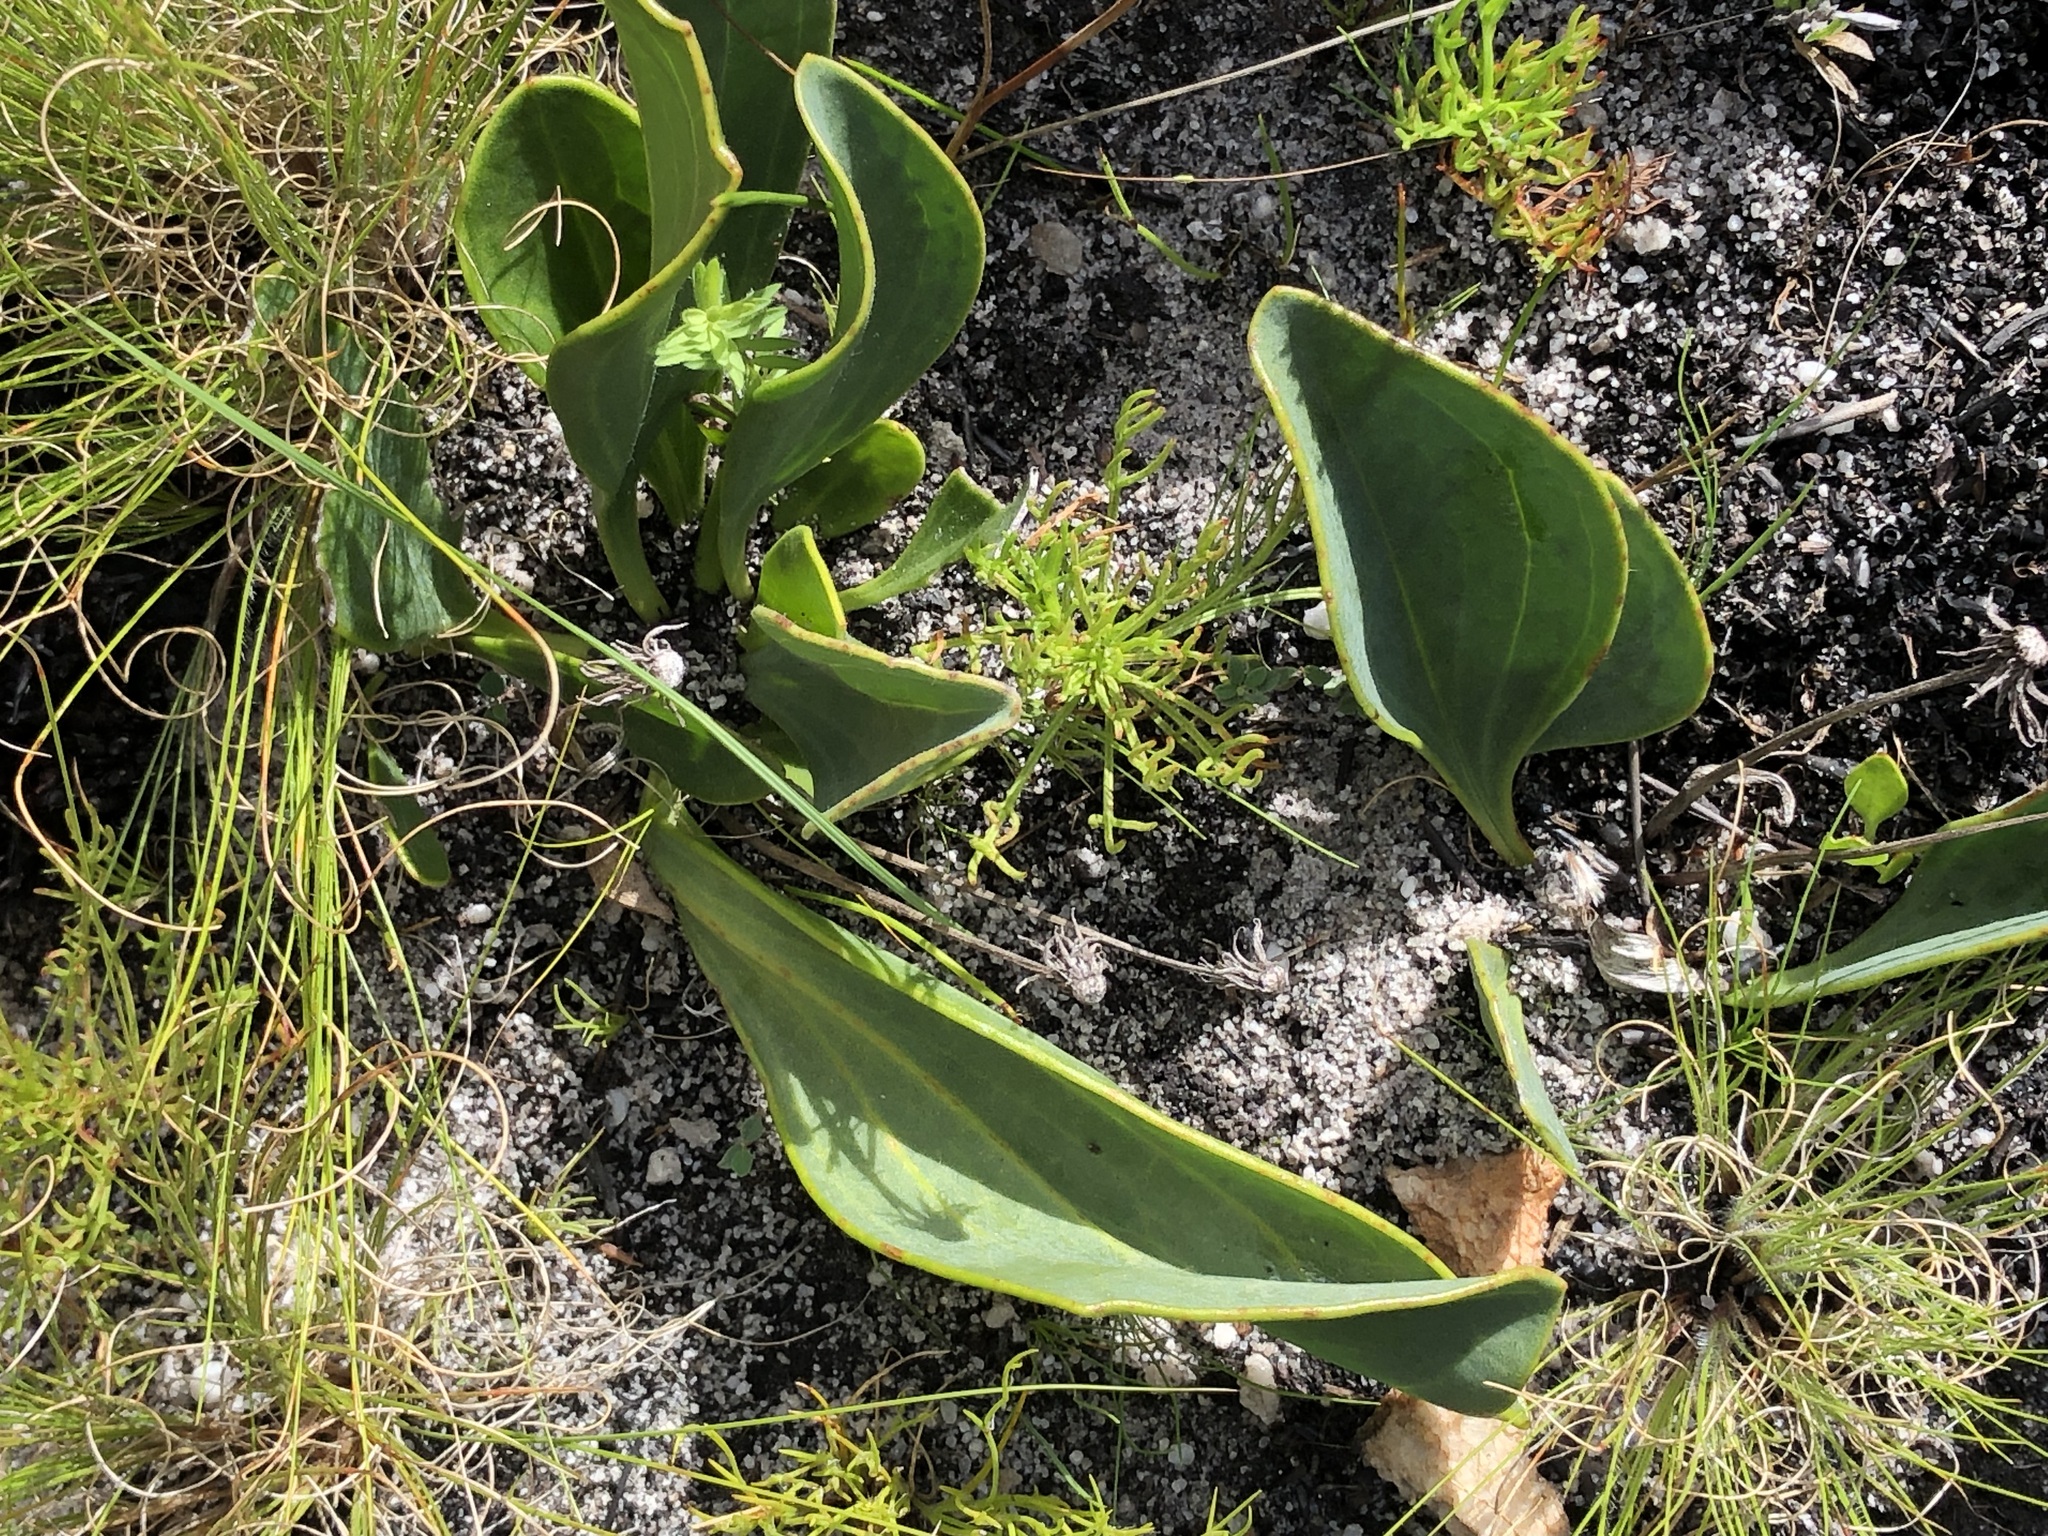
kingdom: Plantae
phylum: Tracheophyta
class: Magnoliopsida
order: Asterales
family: Asteraceae
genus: Mairia
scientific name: Mairia coriacea
